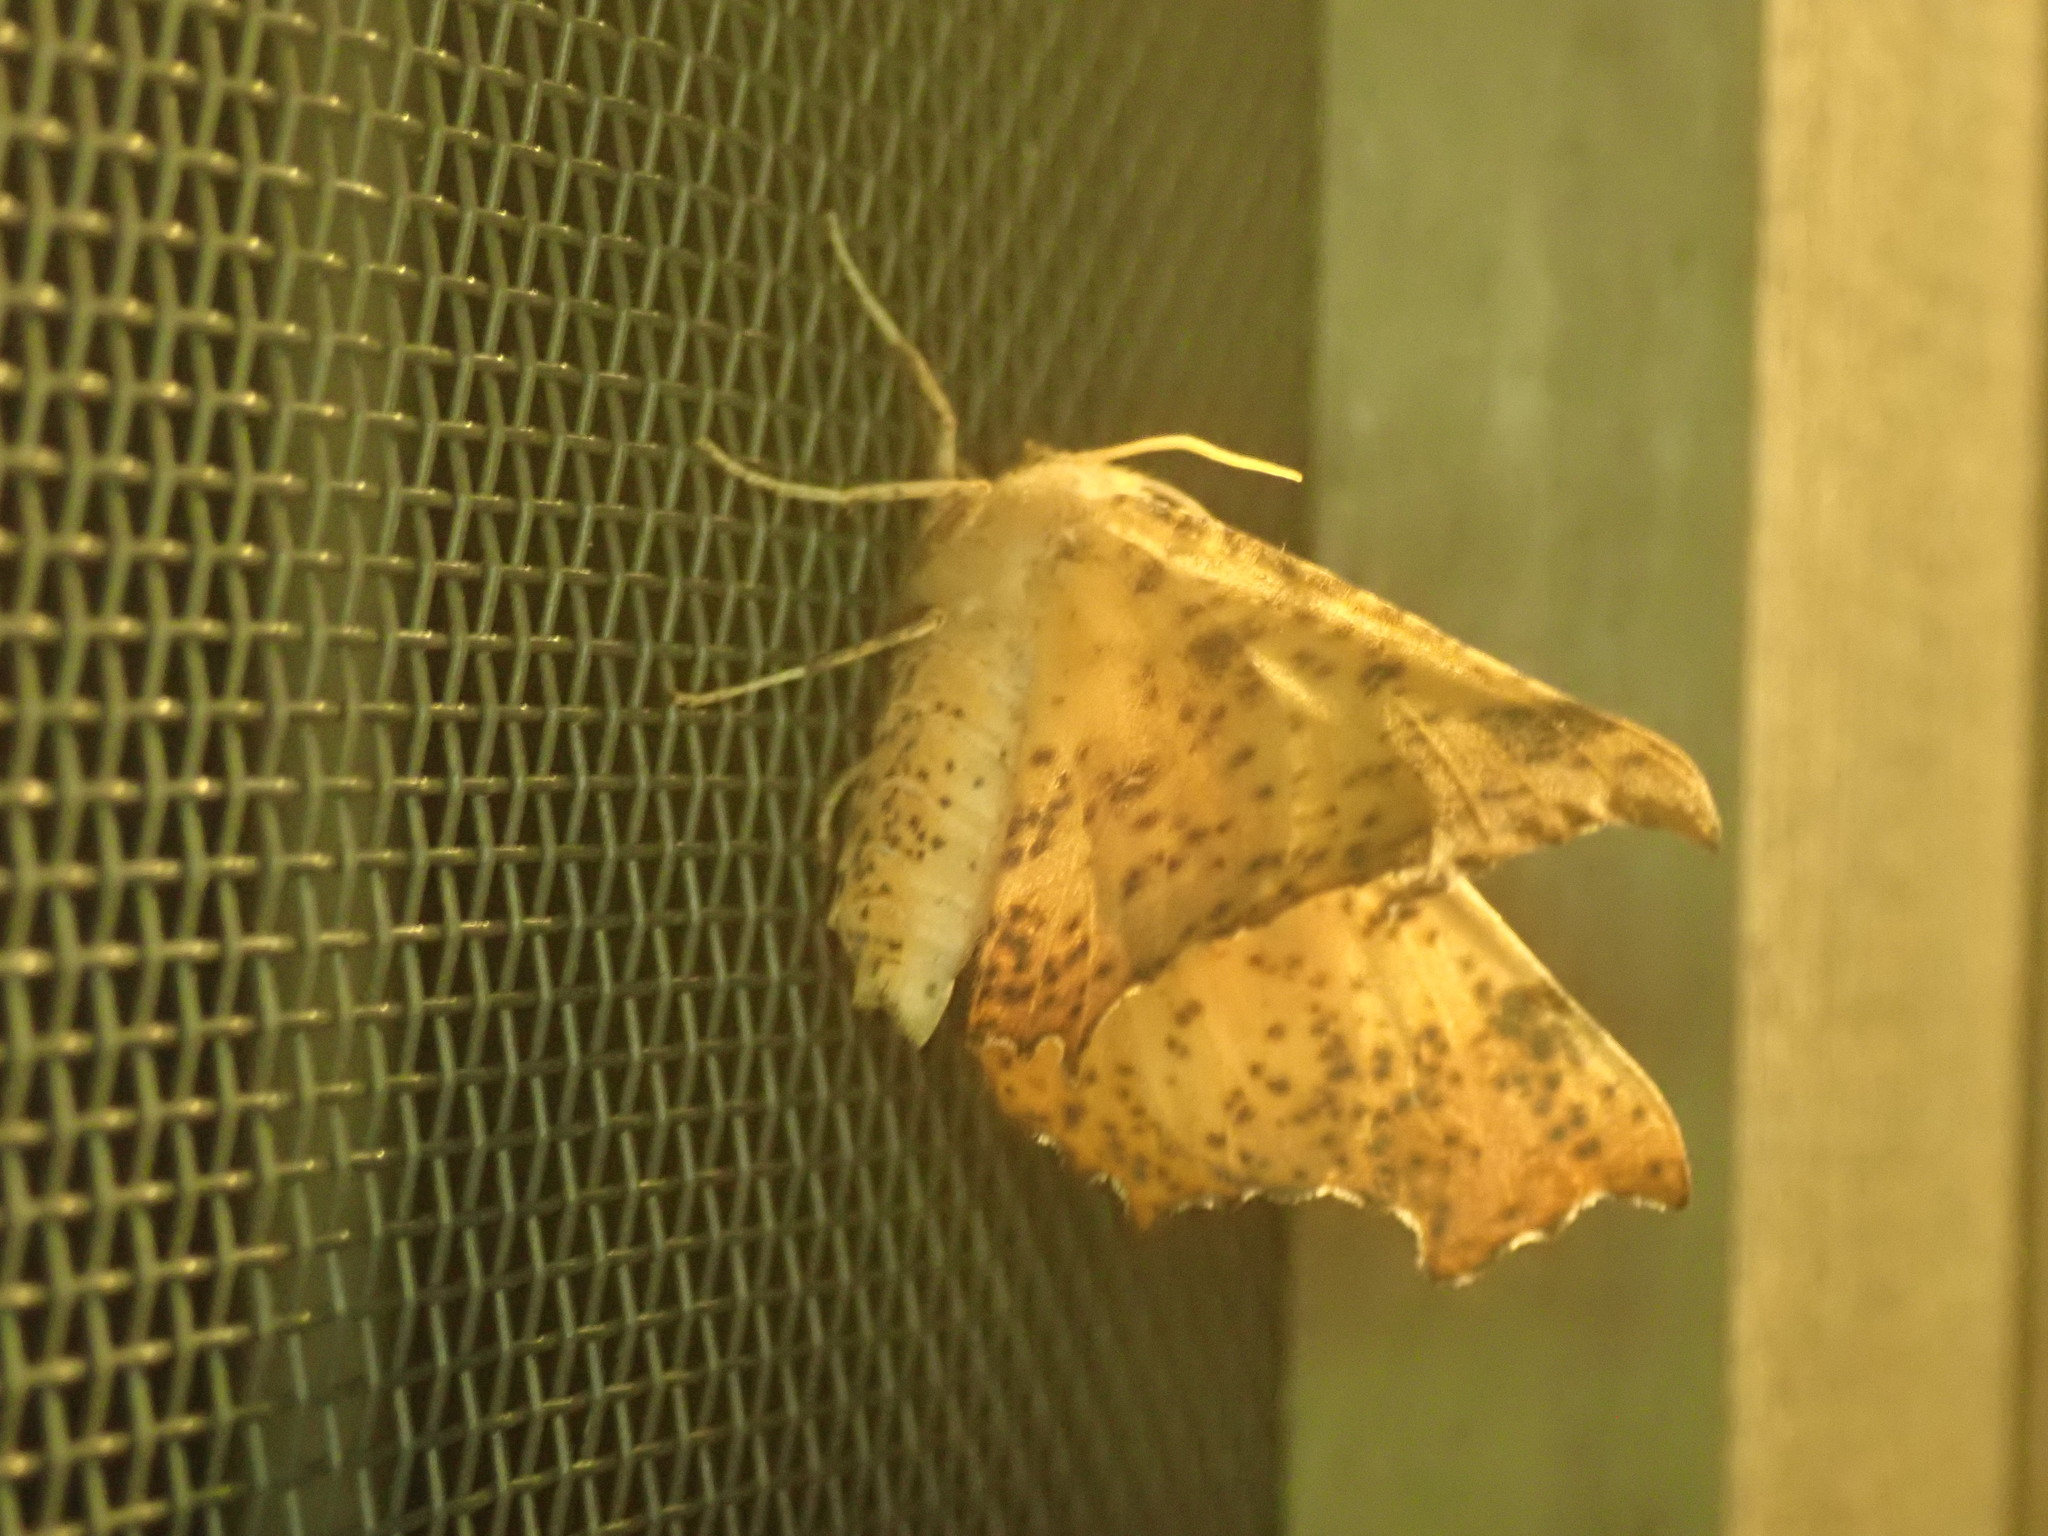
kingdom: Animalia
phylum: Arthropoda
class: Insecta
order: Lepidoptera
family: Geometridae
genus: Ennomos
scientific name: Ennomos magnaria
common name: Maple spanworm
